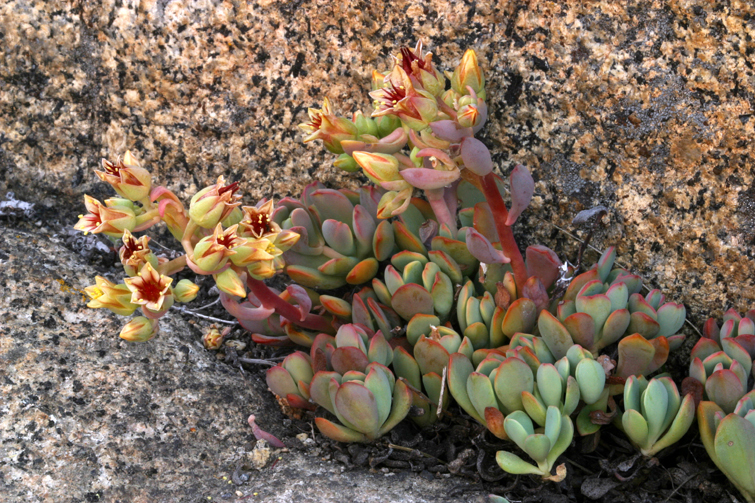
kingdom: Plantae
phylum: Tracheophyta
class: Magnoliopsida
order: Saxifragales
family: Crassulaceae
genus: Sedum
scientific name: Sedum obtusatum
